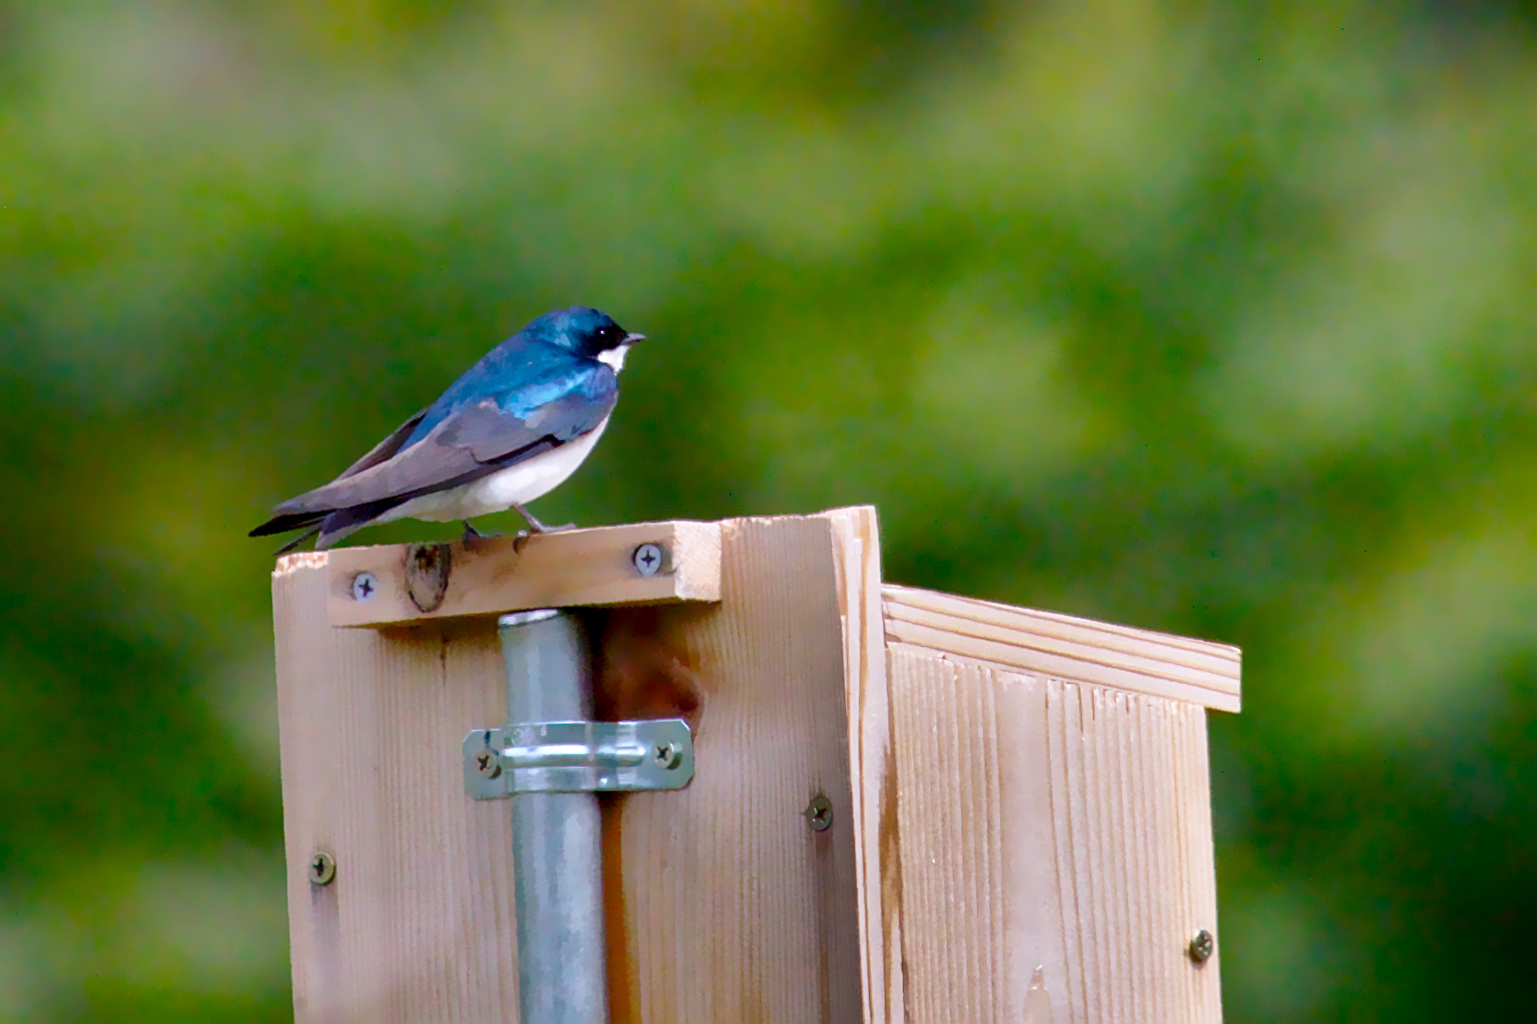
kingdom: Animalia
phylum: Chordata
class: Aves
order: Passeriformes
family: Hirundinidae
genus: Tachycineta
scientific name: Tachycineta bicolor
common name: Tree swallow
